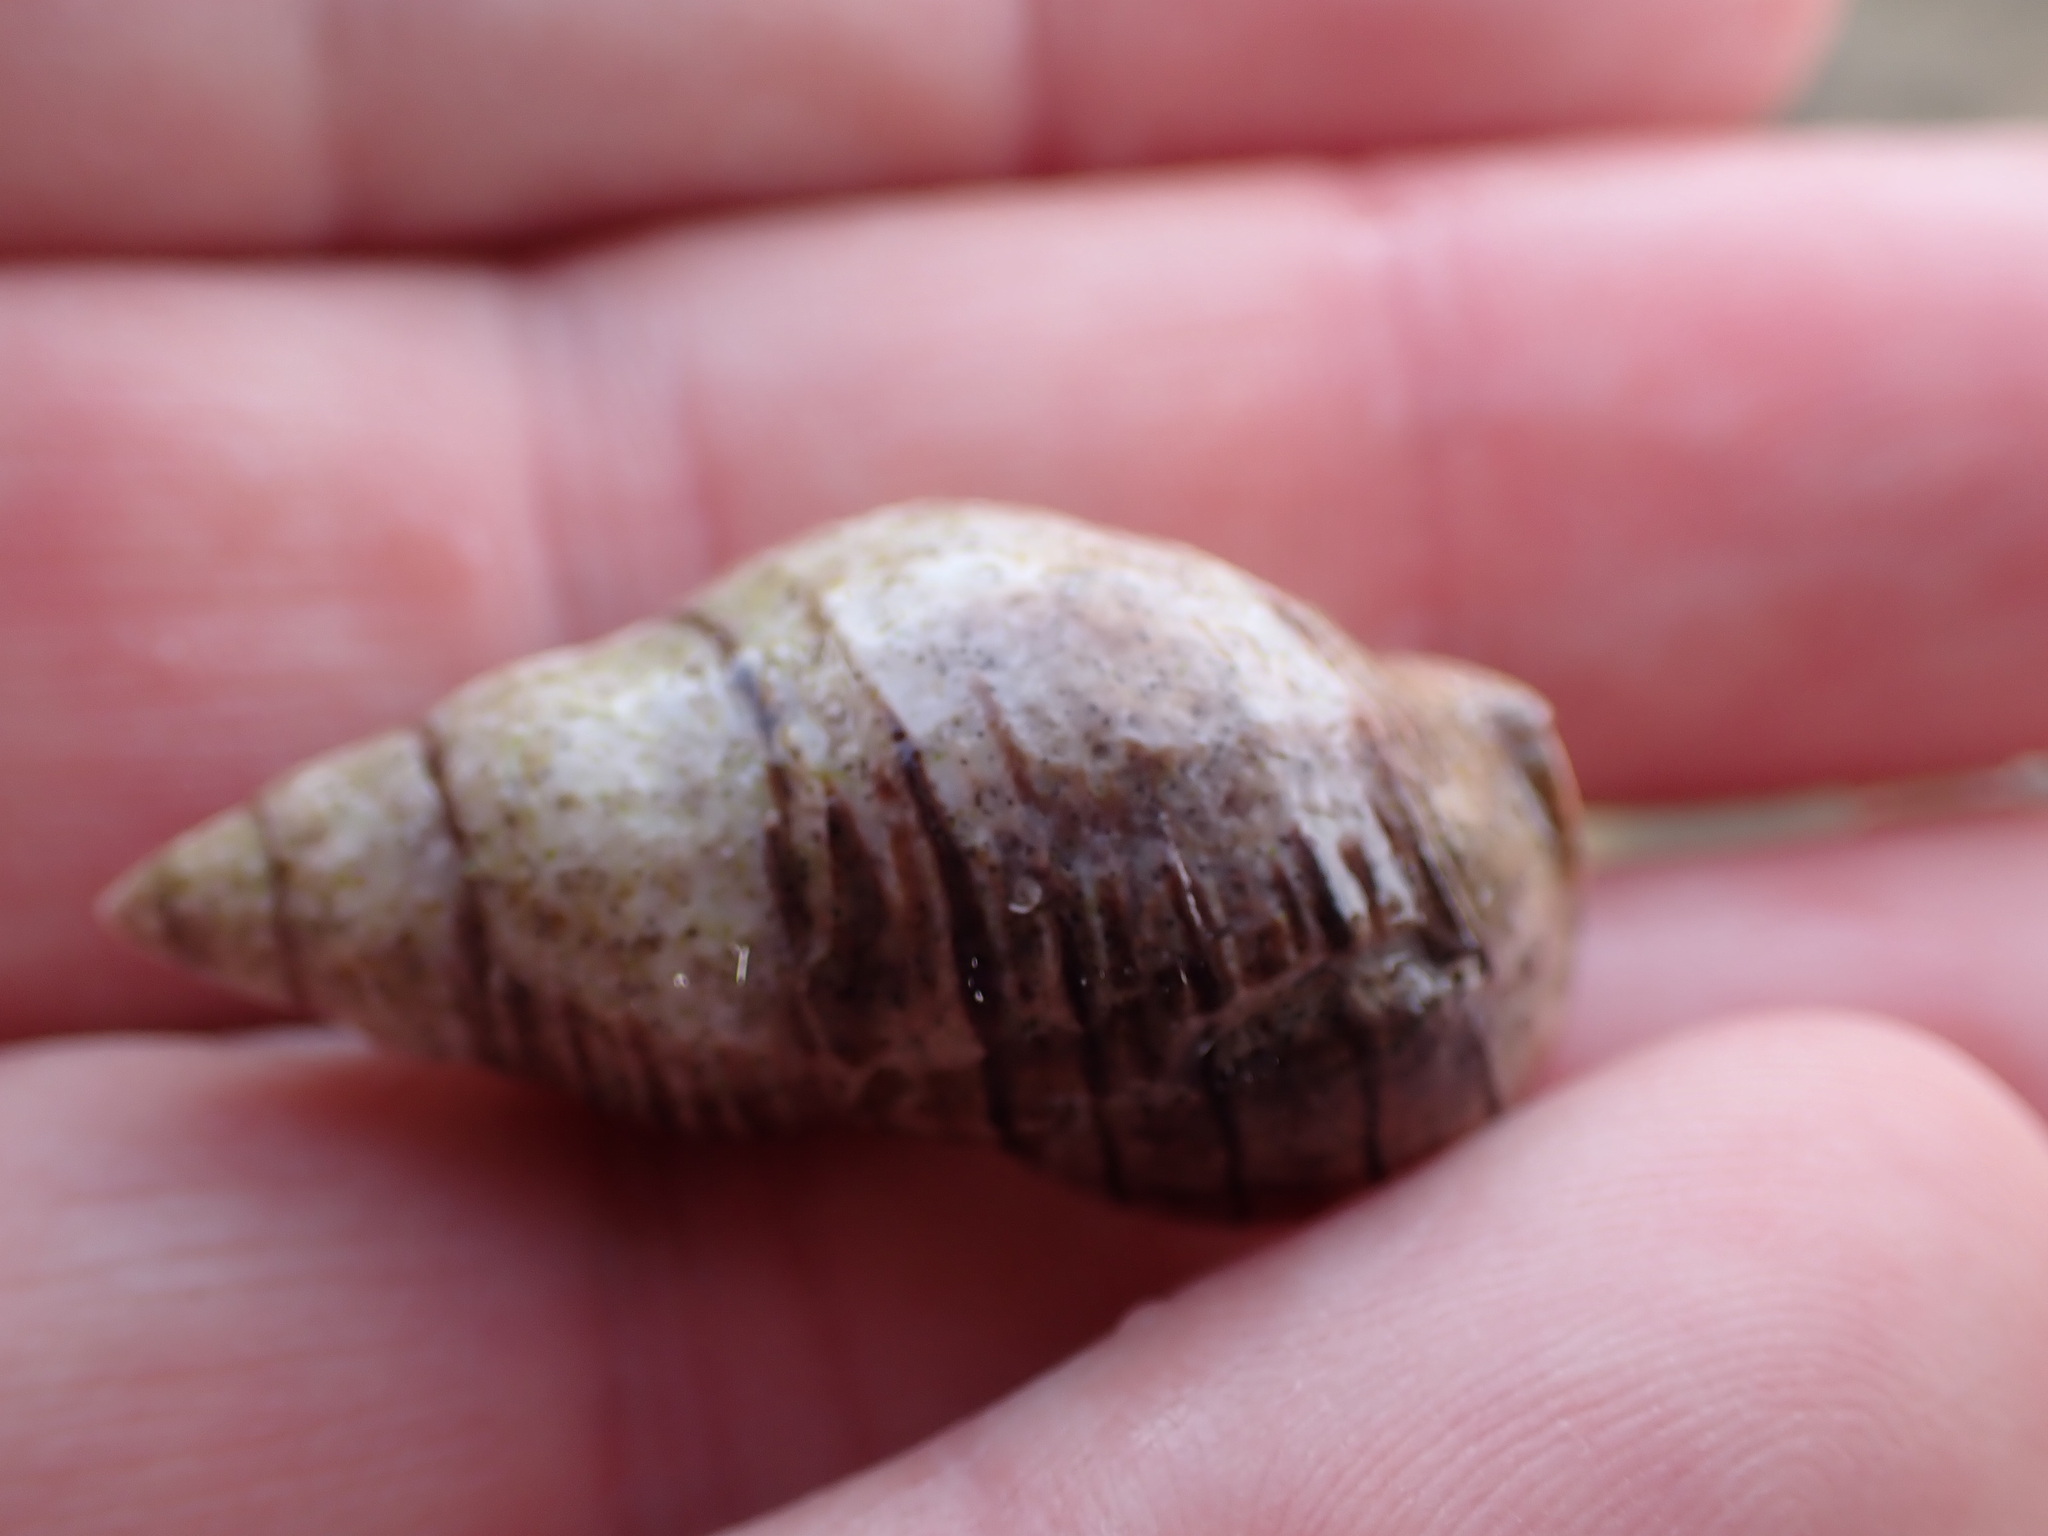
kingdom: Animalia
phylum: Mollusca
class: Gastropoda
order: Neogastropoda
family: Cominellidae
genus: Cominella
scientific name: Cominella virgata
